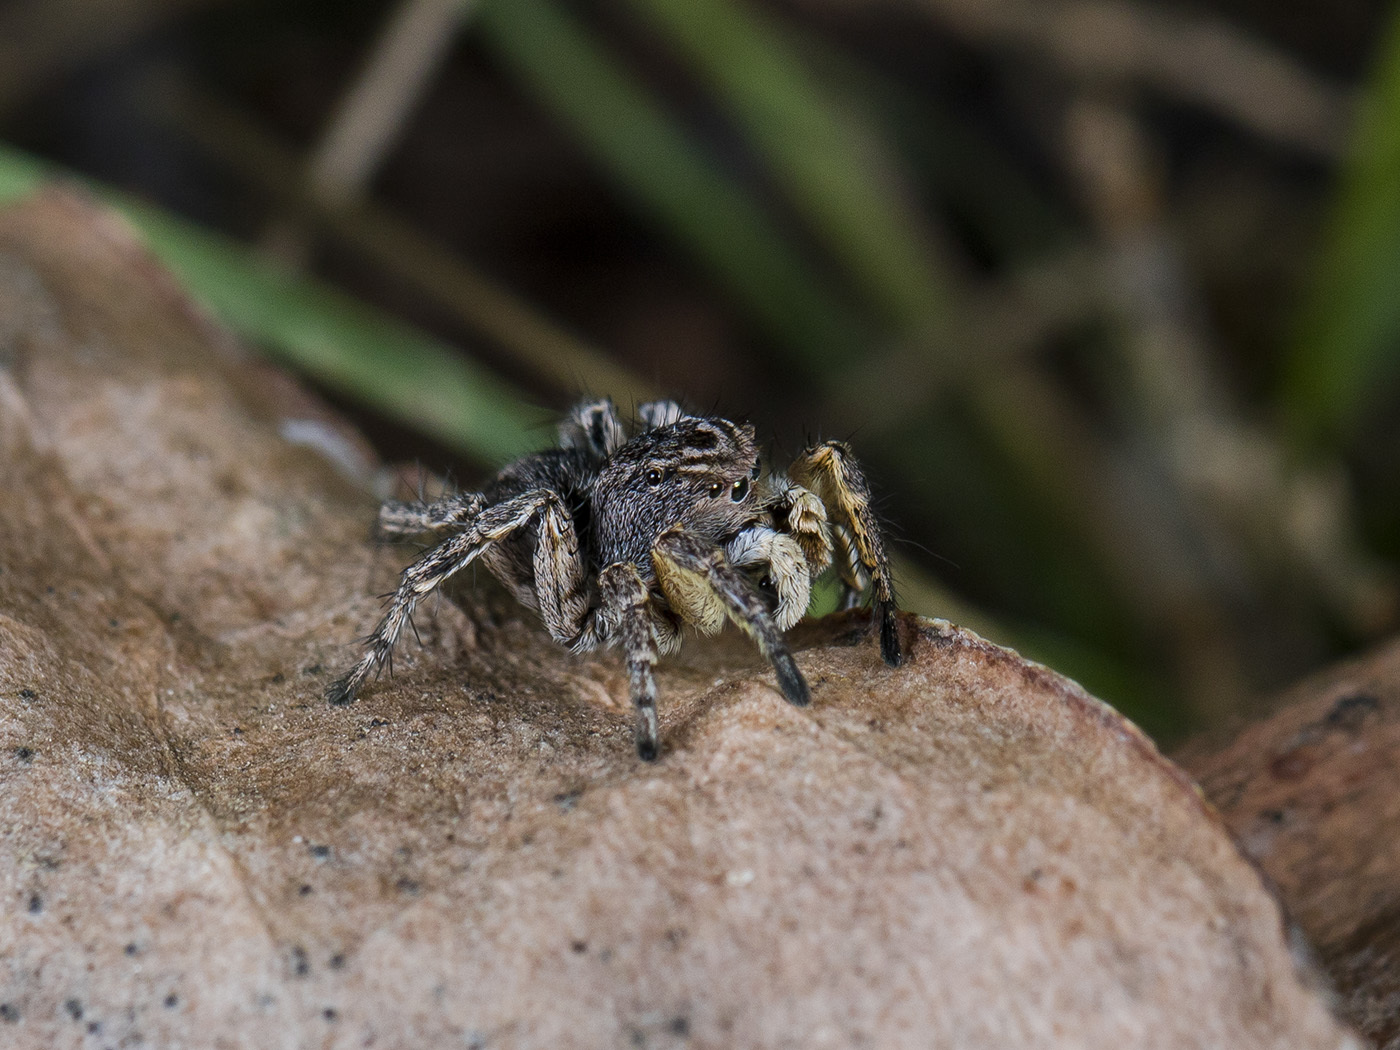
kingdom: Animalia
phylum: Arthropoda
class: Arachnida
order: Araneae
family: Salticidae
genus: Aelurillus
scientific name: Aelurillus v-insignitus
